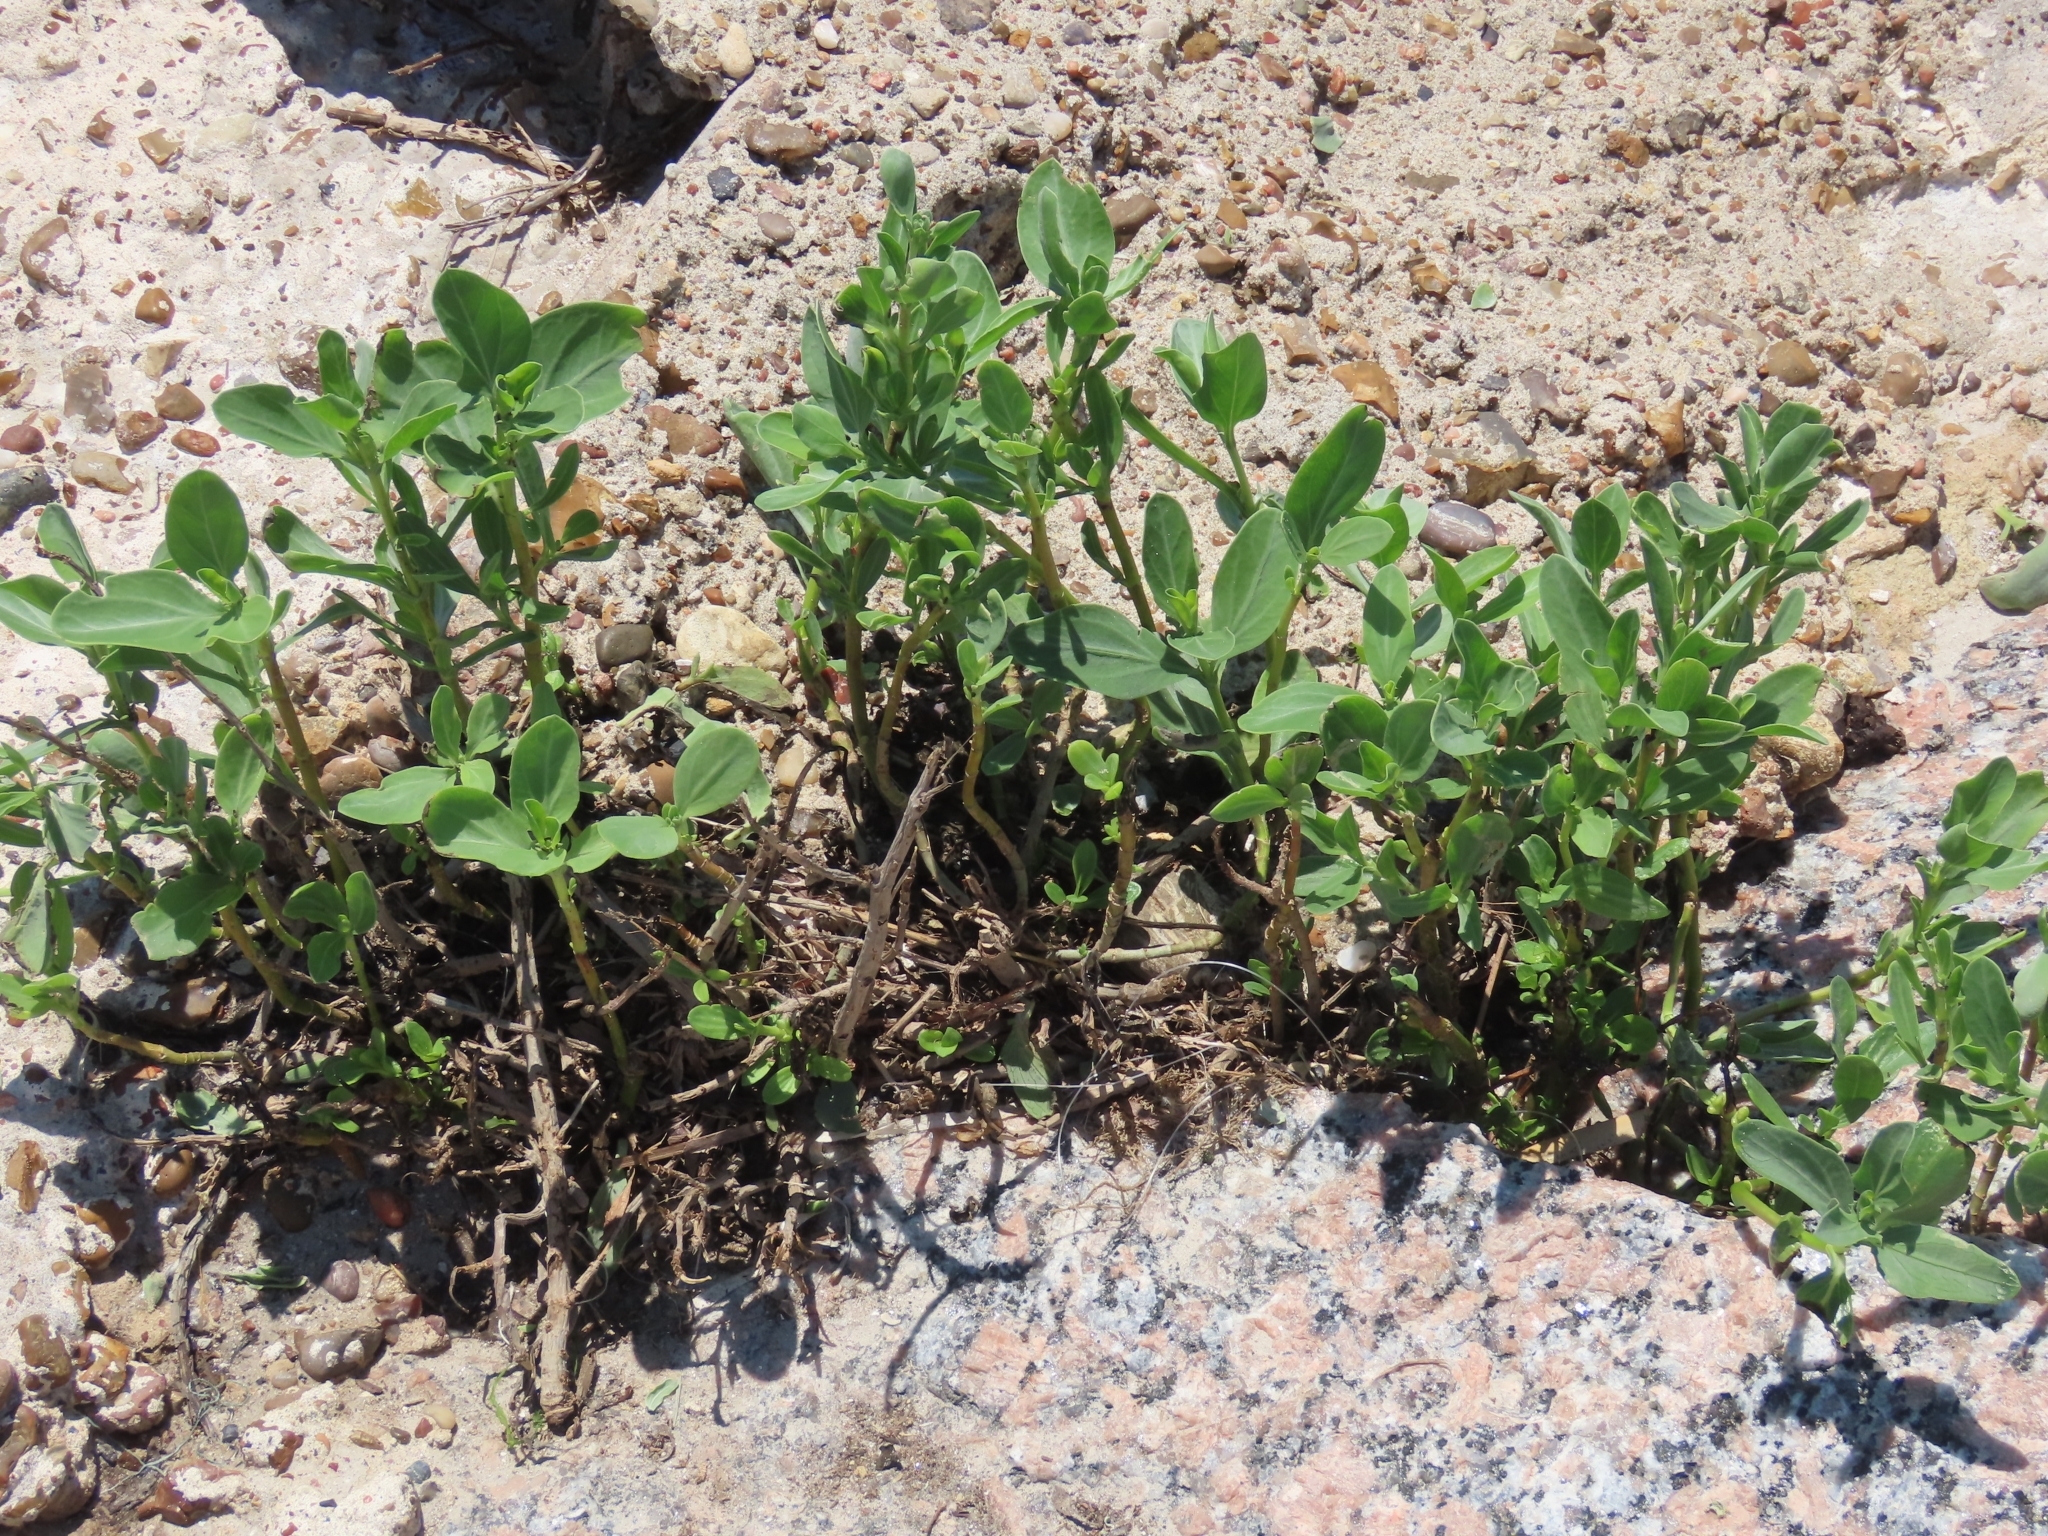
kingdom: Plantae
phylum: Tracheophyta
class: Magnoliopsida
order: Asterales
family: Asteraceae
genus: Borrichia
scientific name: Borrichia frutescens
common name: Sea oxeye
